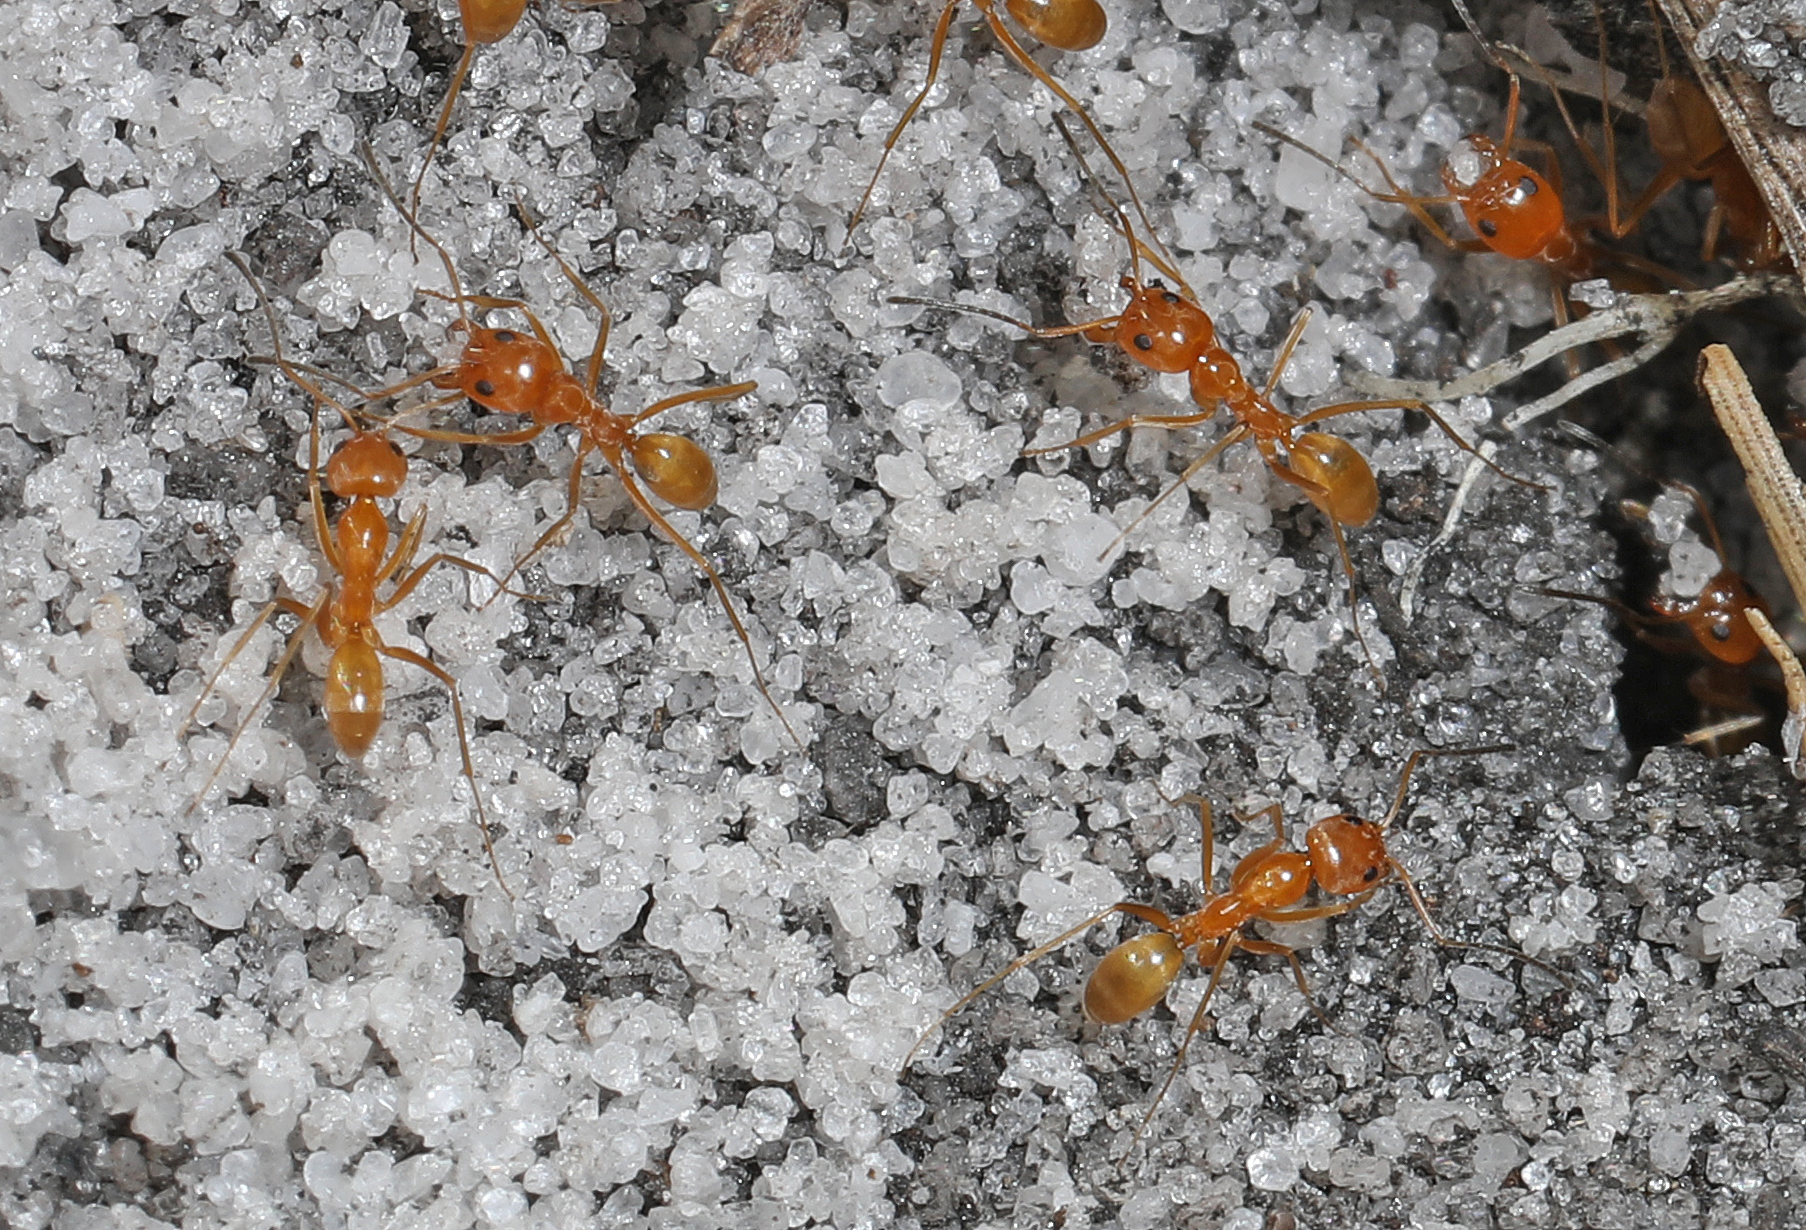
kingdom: Animalia
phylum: Arthropoda
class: Insecta
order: Hymenoptera
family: Formicidae
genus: Dorymyrmex
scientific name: Dorymyrmex bureni
